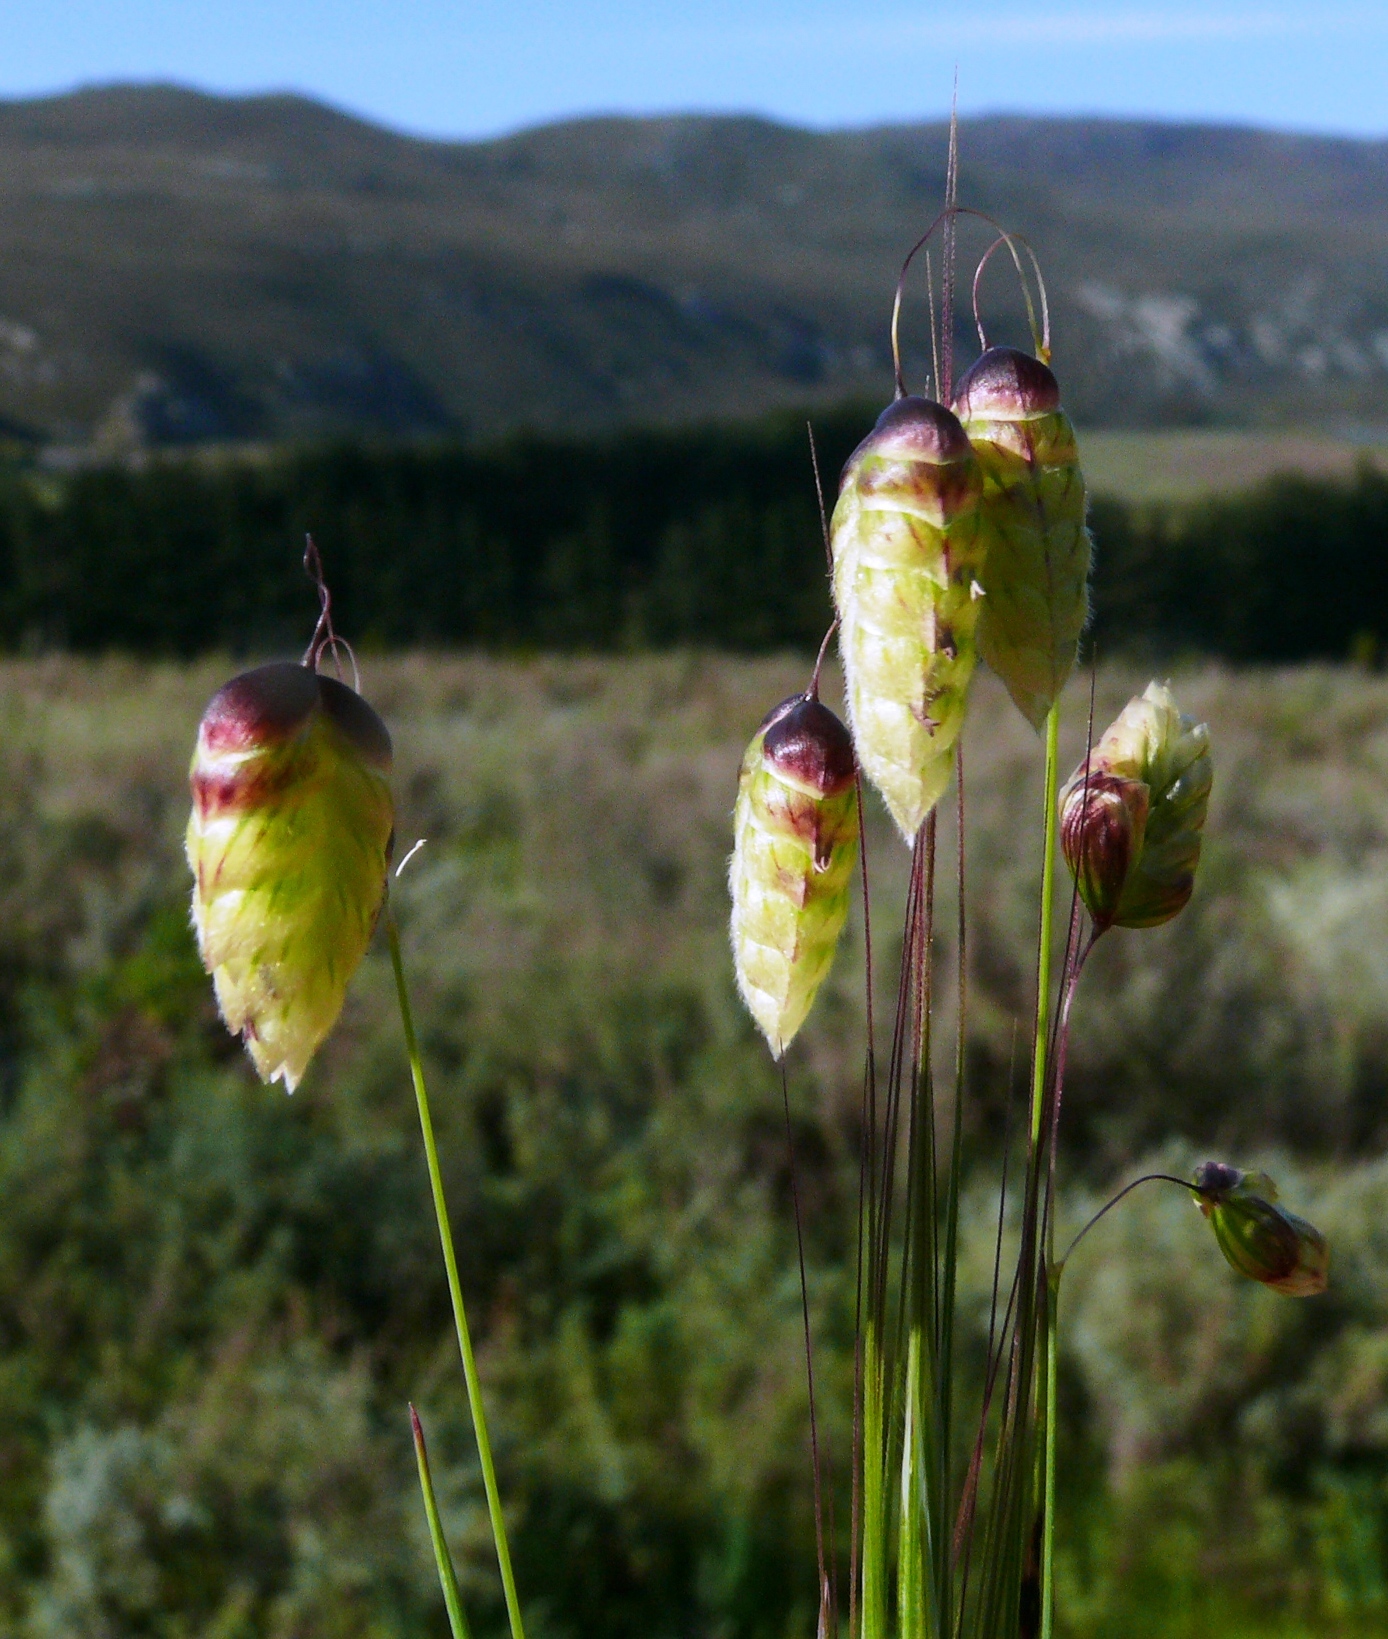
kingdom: Plantae
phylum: Tracheophyta
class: Liliopsida
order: Poales
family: Poaceae
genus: Briza
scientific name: Briza maxima
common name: Big quakinggrass
